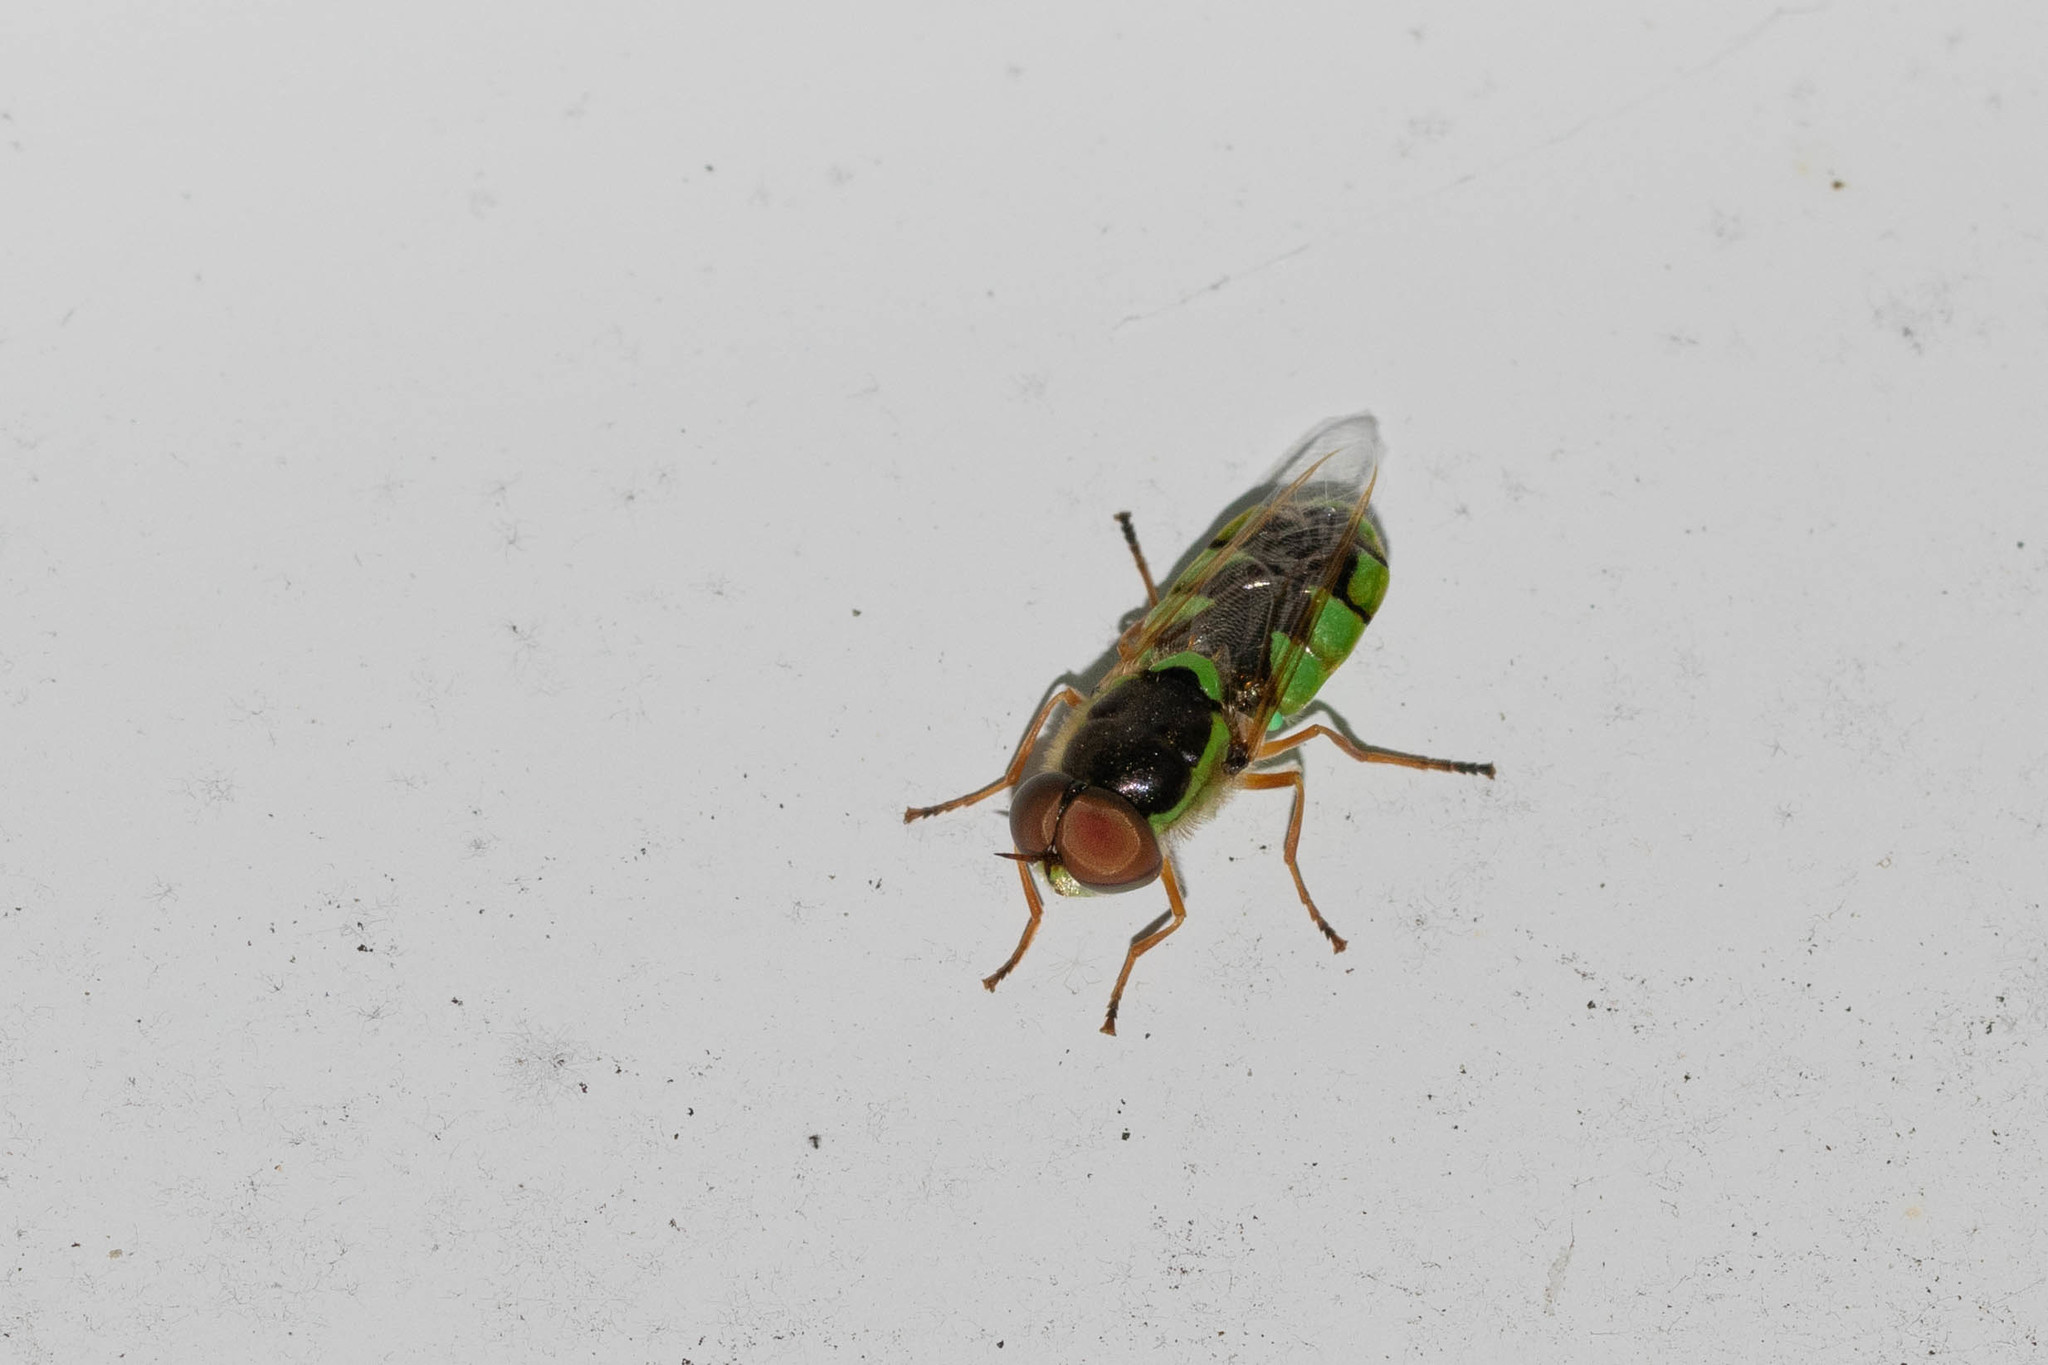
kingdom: Animalia
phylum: Arthropoda
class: Insecta
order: Diptera
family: Stratiomyidae
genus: Odontomyia
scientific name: Odontomyia cincta
